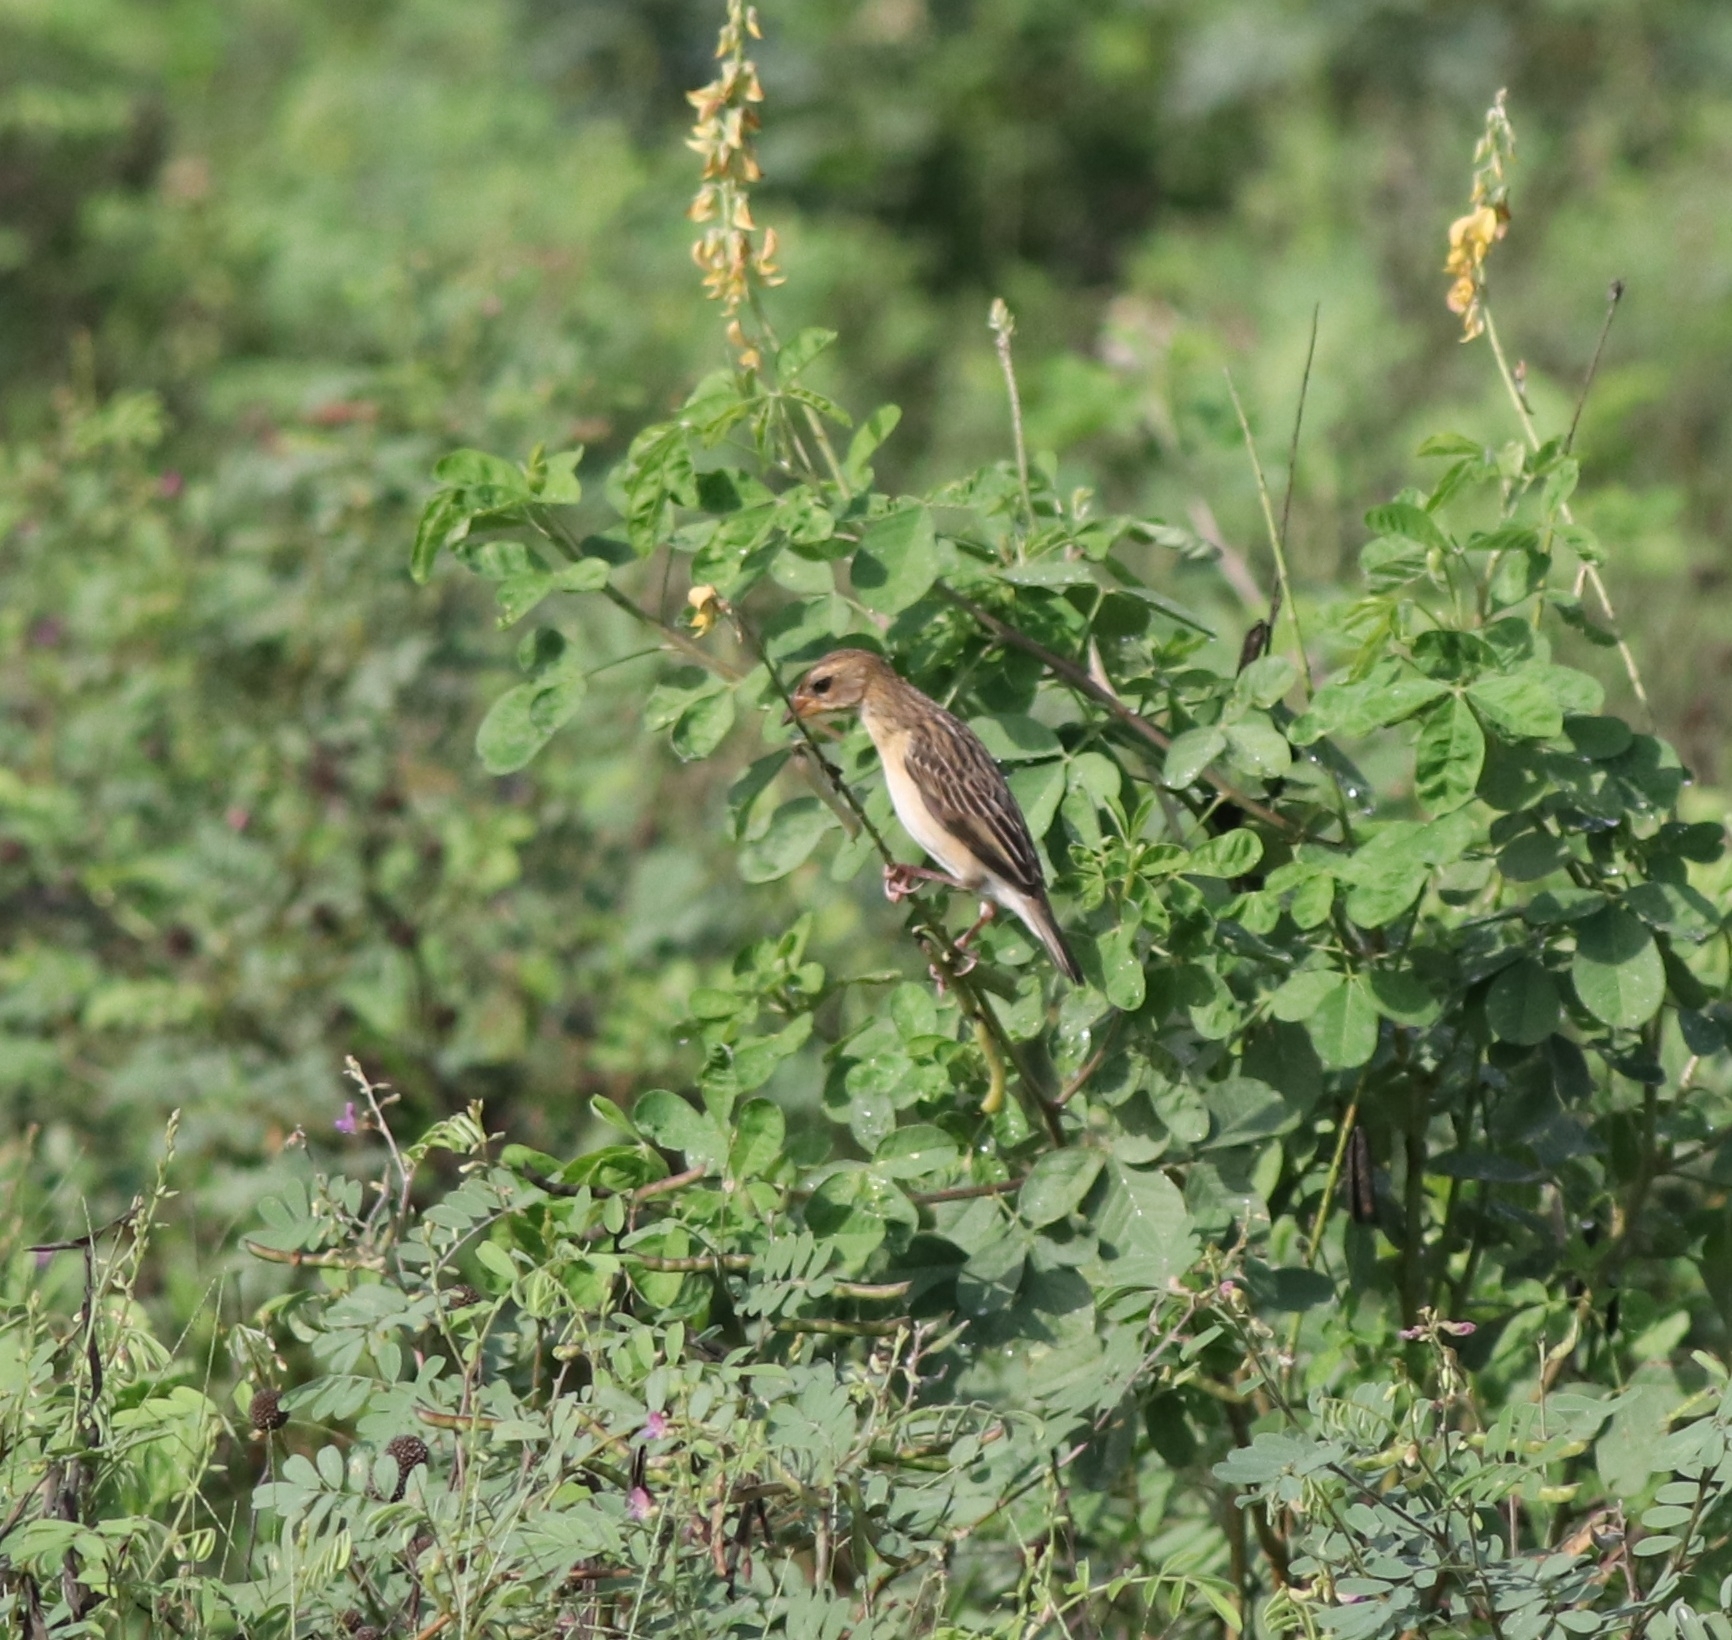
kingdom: Animalia
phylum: Chordata
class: Aves
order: Passeriformes
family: Ploceidae
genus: Ploceus
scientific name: Ploceus philippinus
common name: Baya weaver
